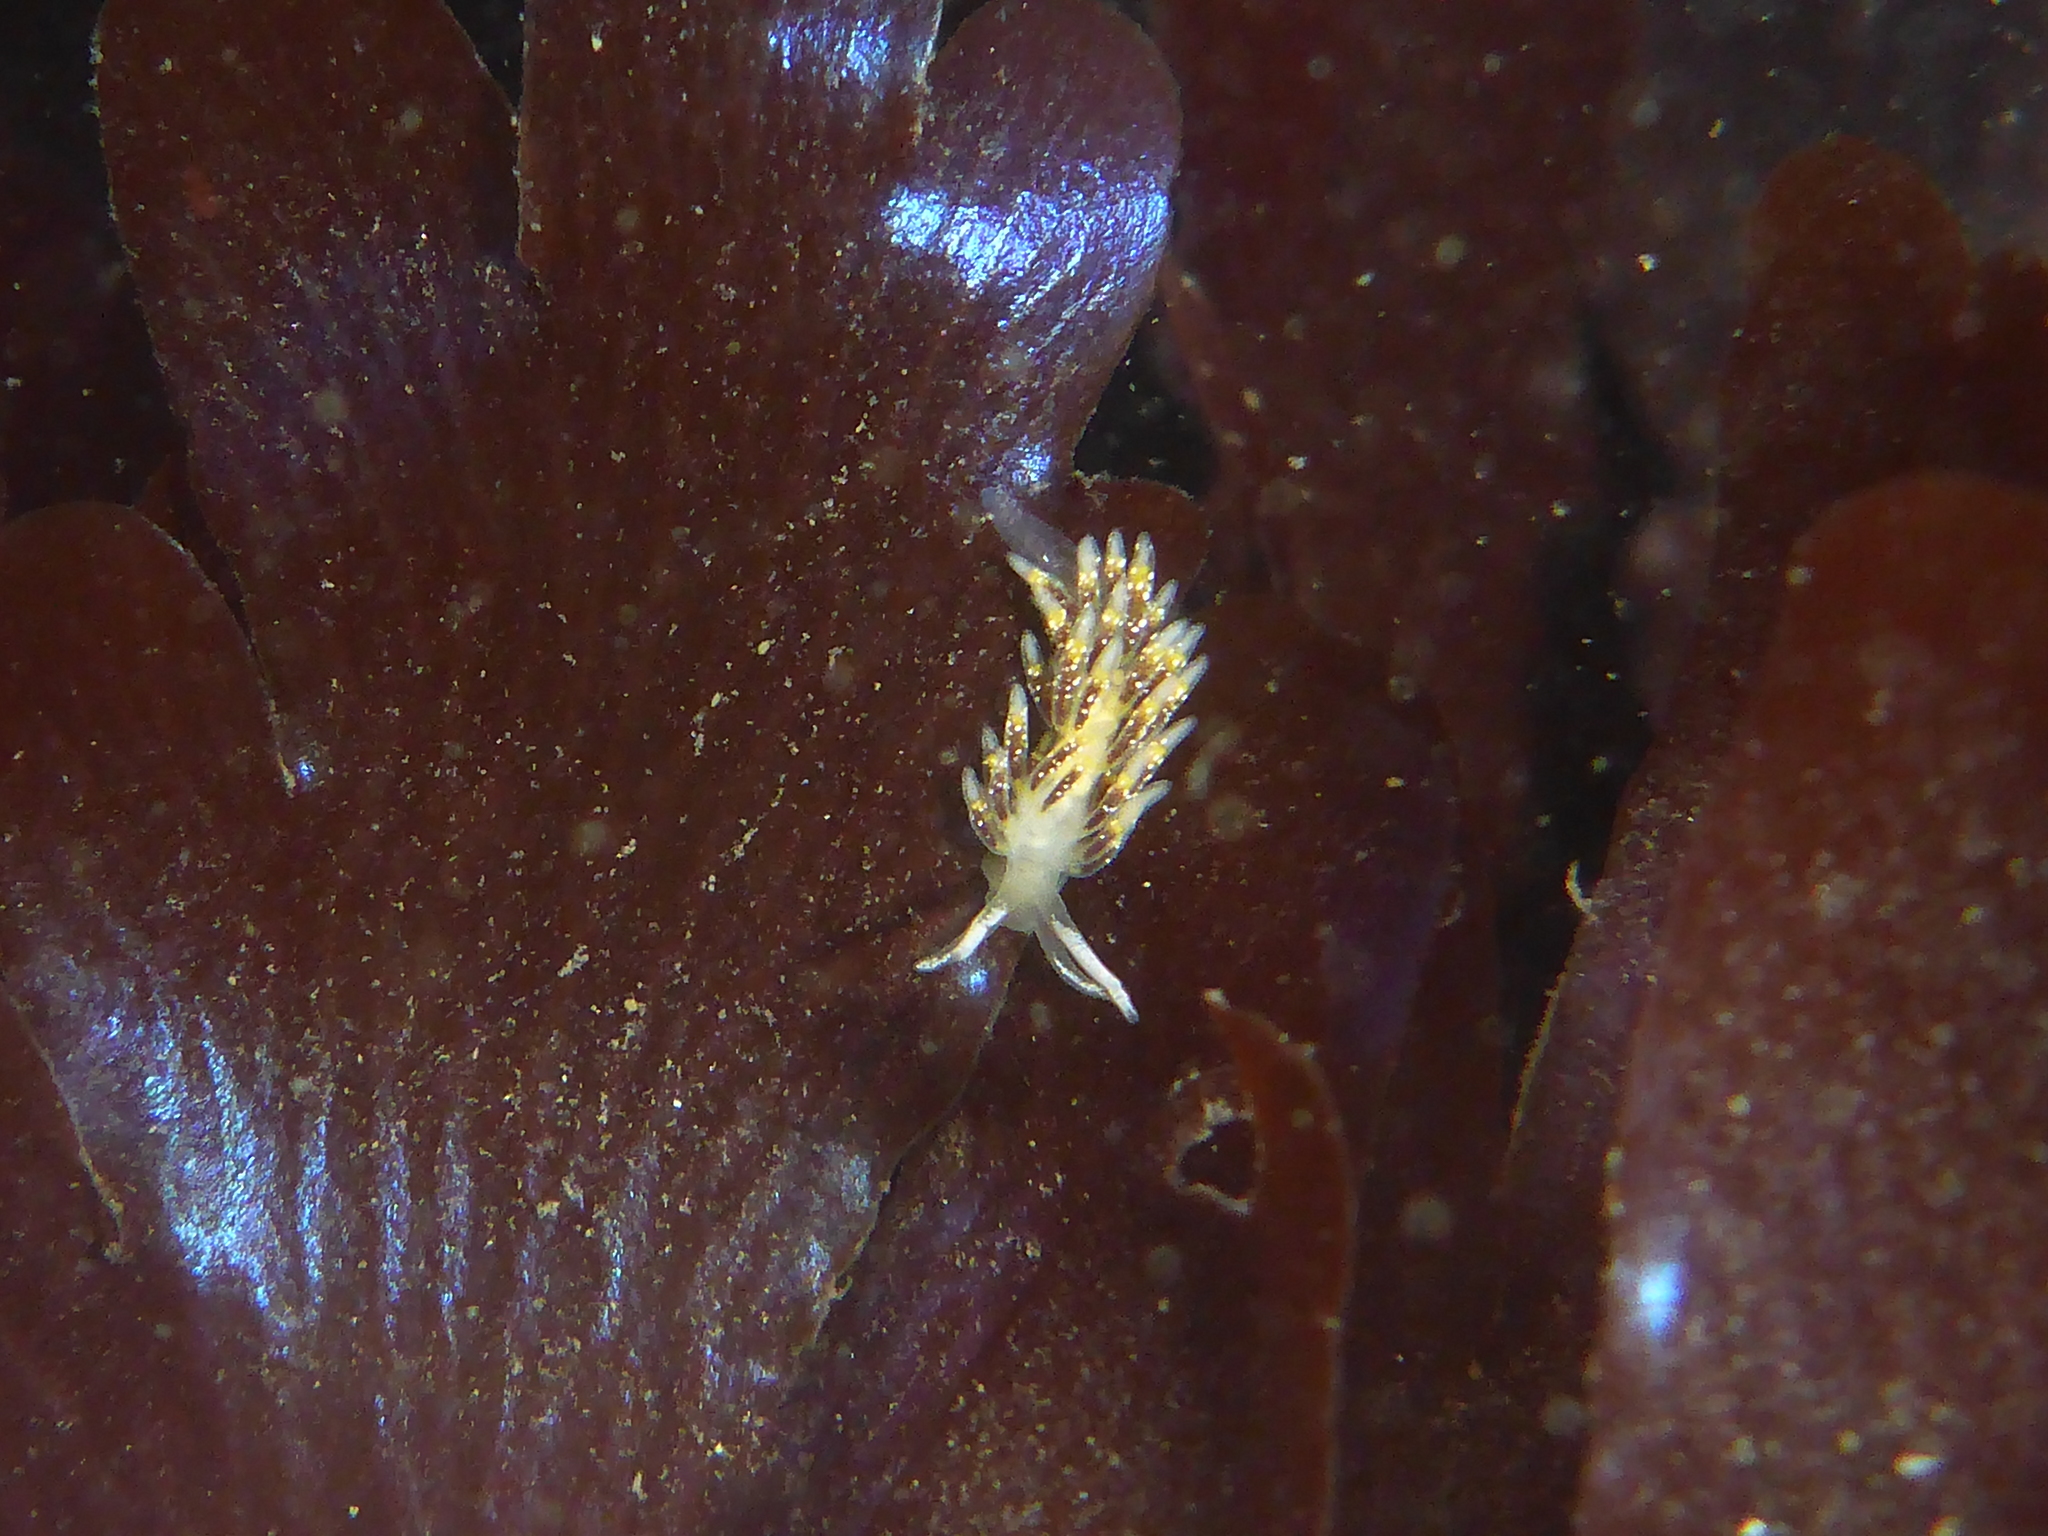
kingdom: Animalia
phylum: Mollusca
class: Gastropoda
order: Nudibranchia
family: Trinchesiidae
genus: Zelentia
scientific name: Zelentia fulgens
